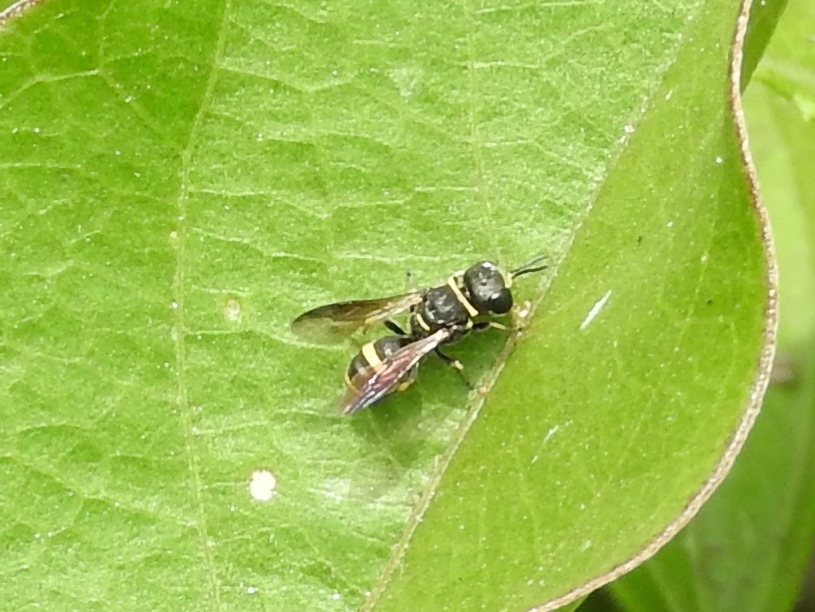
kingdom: Animalia
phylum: Arthropoda
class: Insecta
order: Hymenoptera
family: Crabronidae
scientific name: Crabronidae
